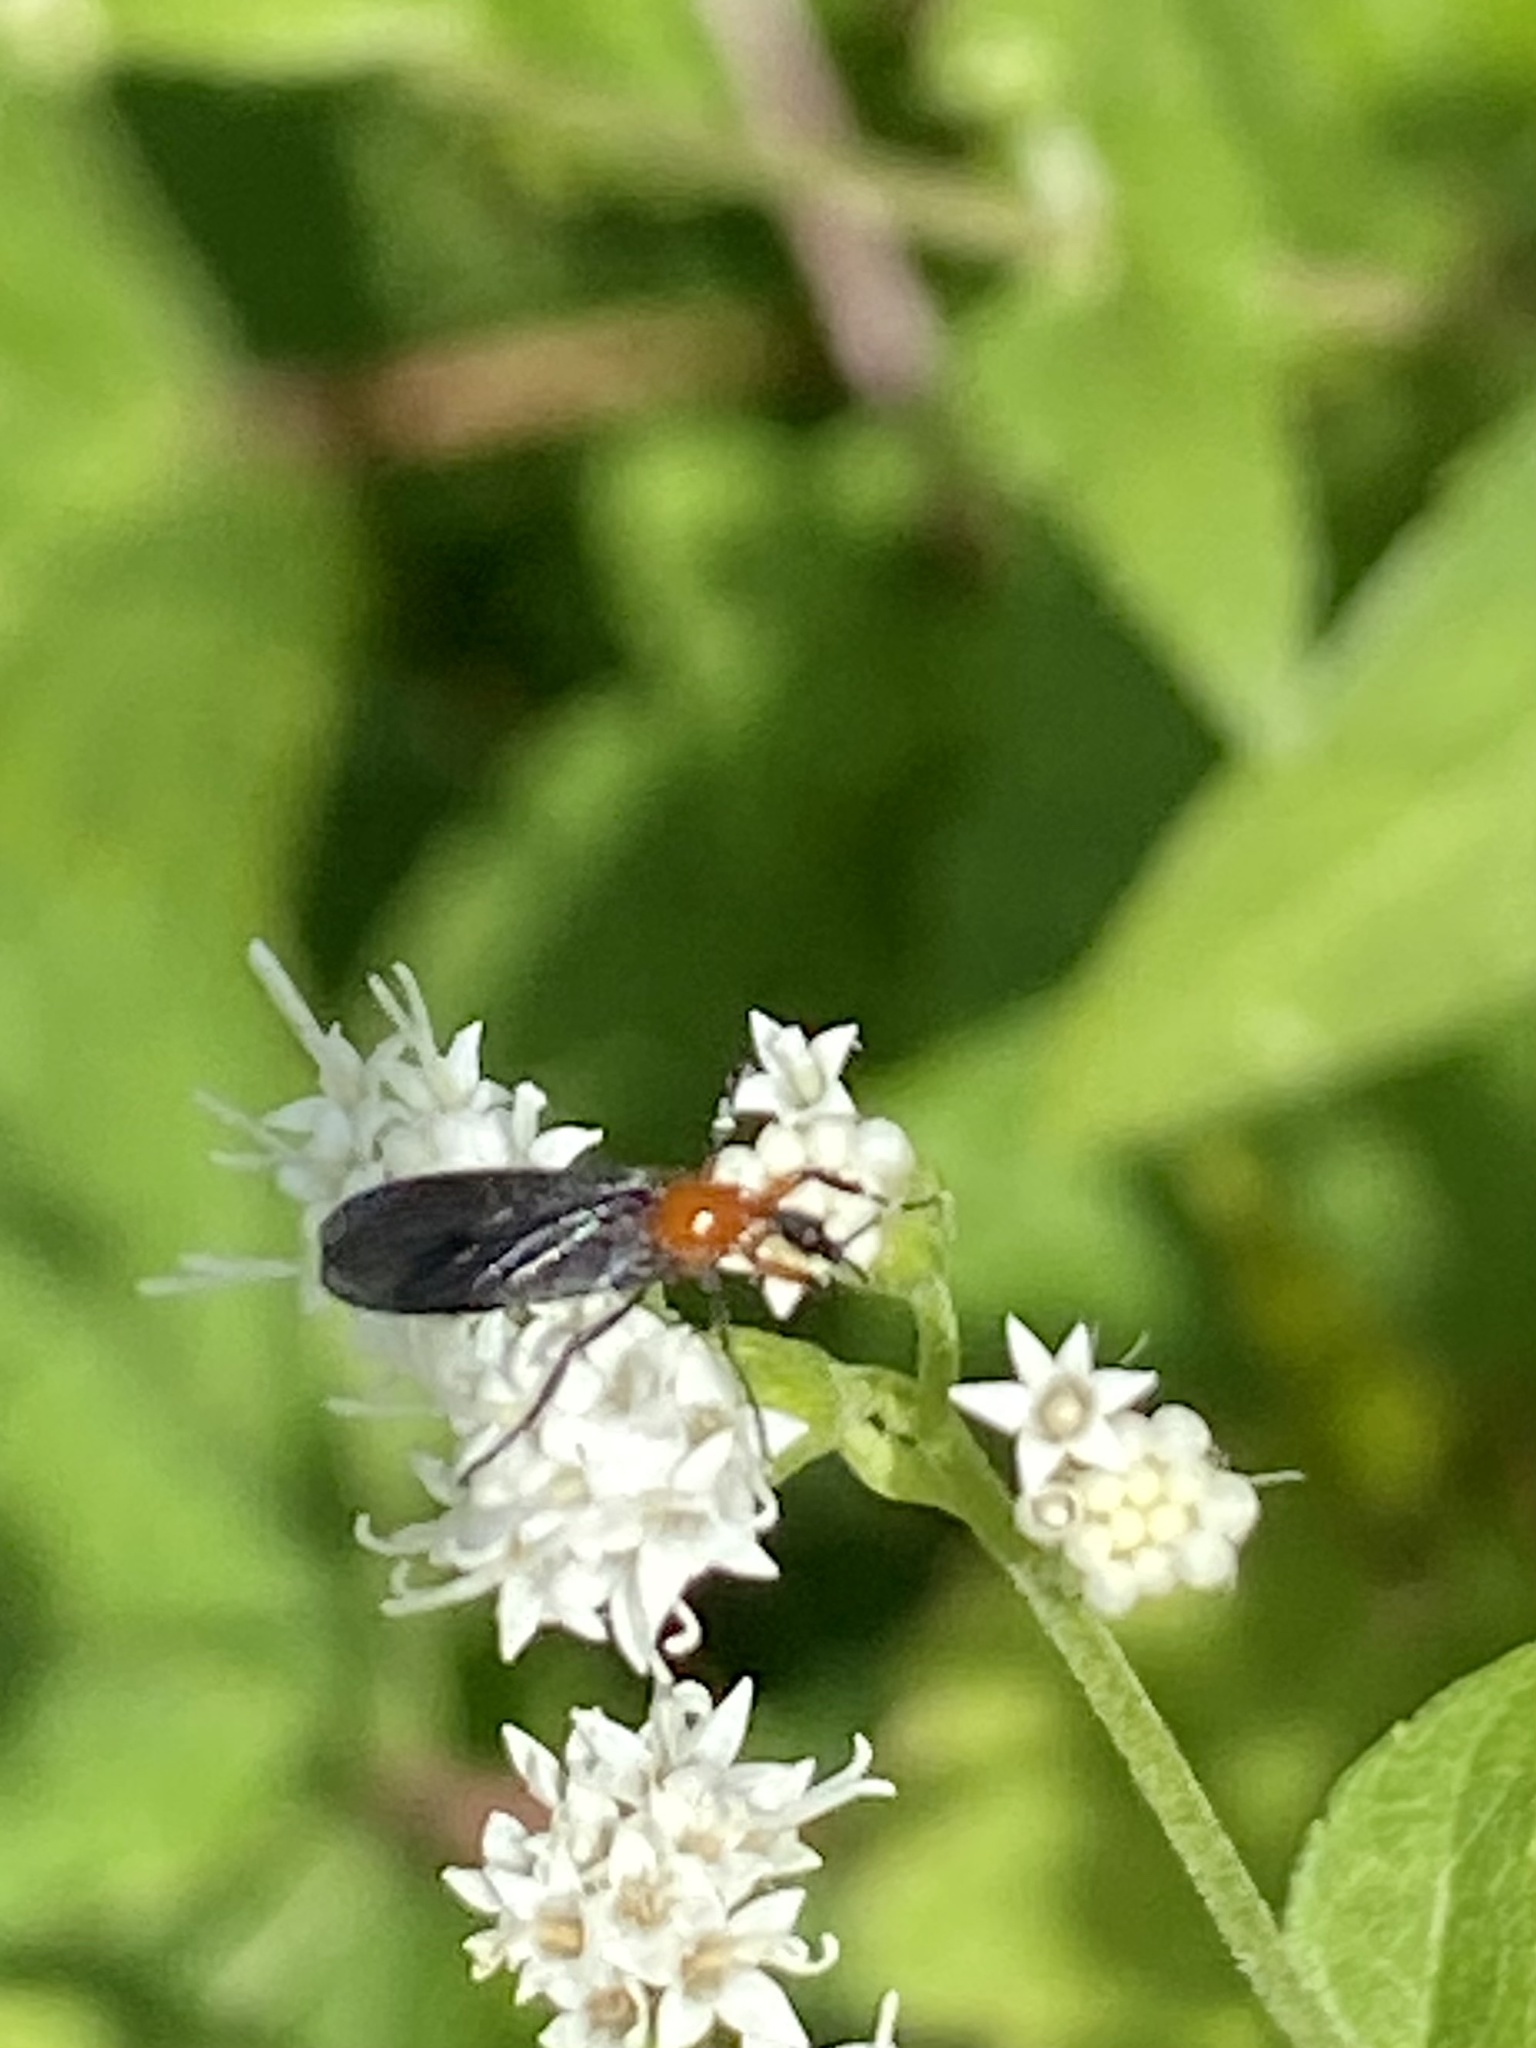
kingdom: Animalia
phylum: Arthropoda
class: Insecta
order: Diptera
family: Bibionidae
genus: Dilophus
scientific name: Dilophus spinipes
